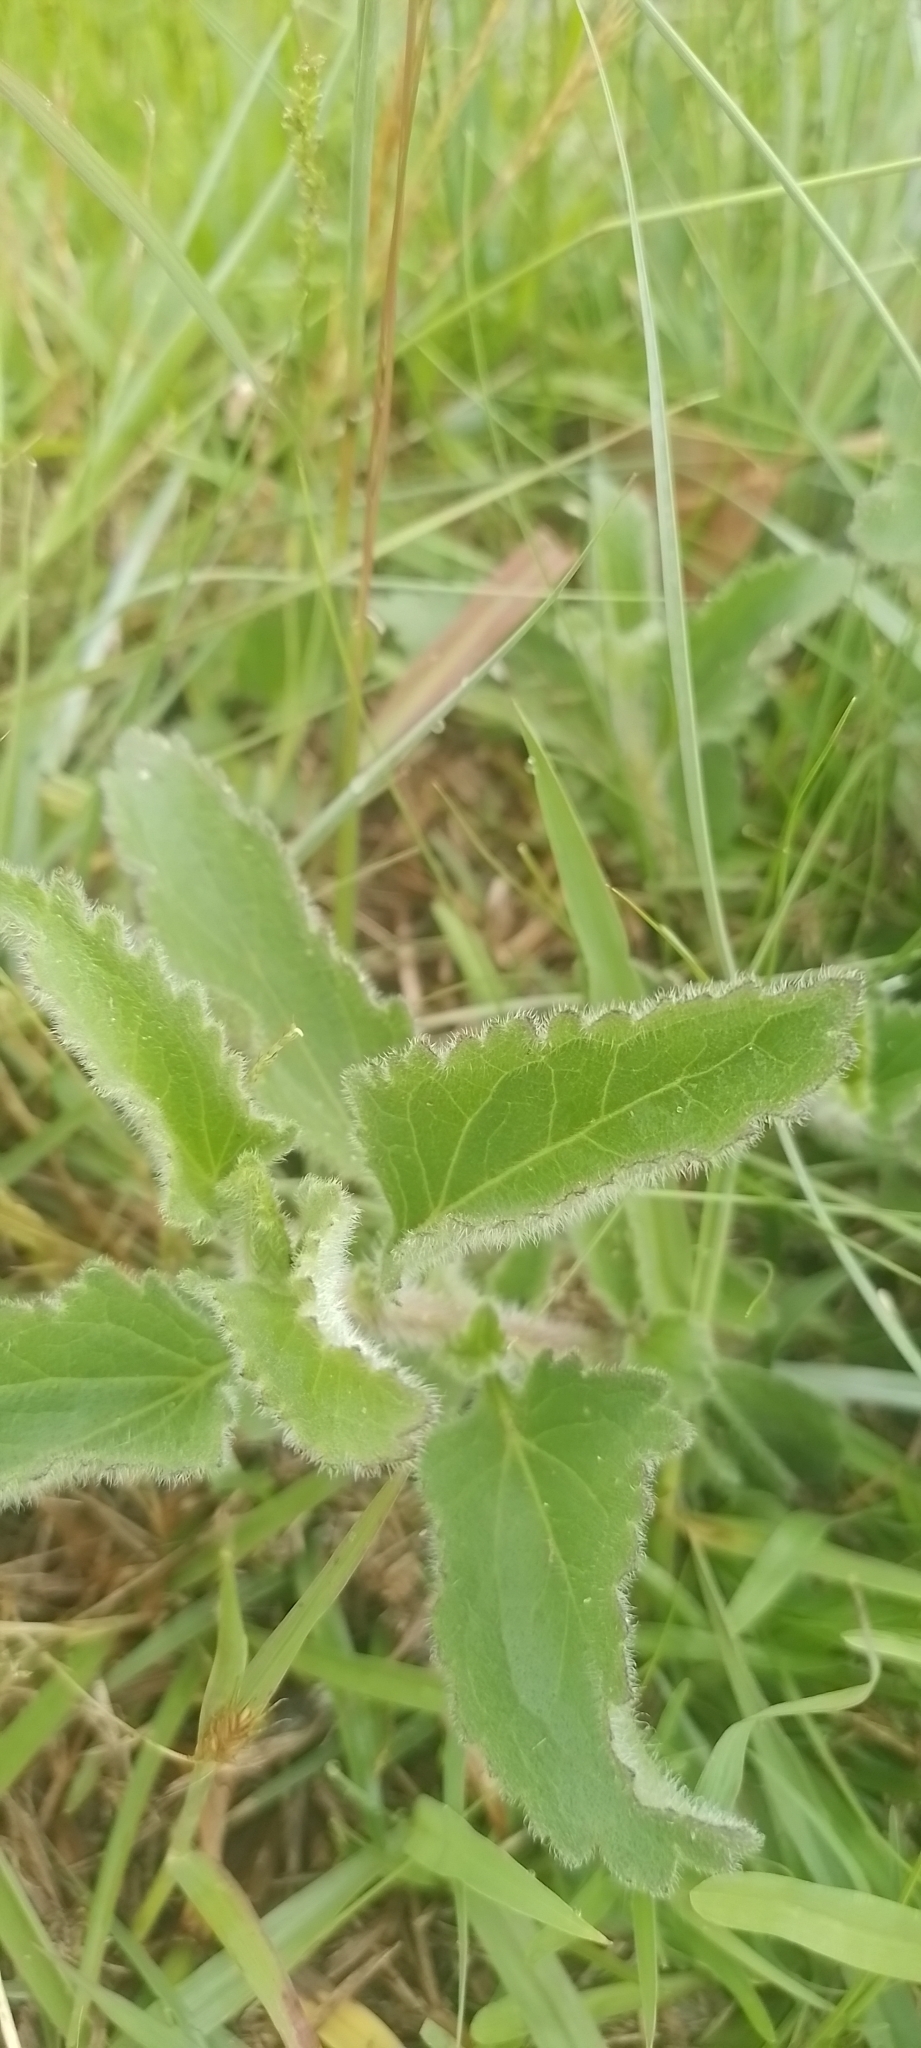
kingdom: Plantae
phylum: Tracheophyta
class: Magnoliopsida
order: Asterales
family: Asteraceae
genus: Campuloclinium
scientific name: Campuloclinium macrocephalum
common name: Pompomweed
